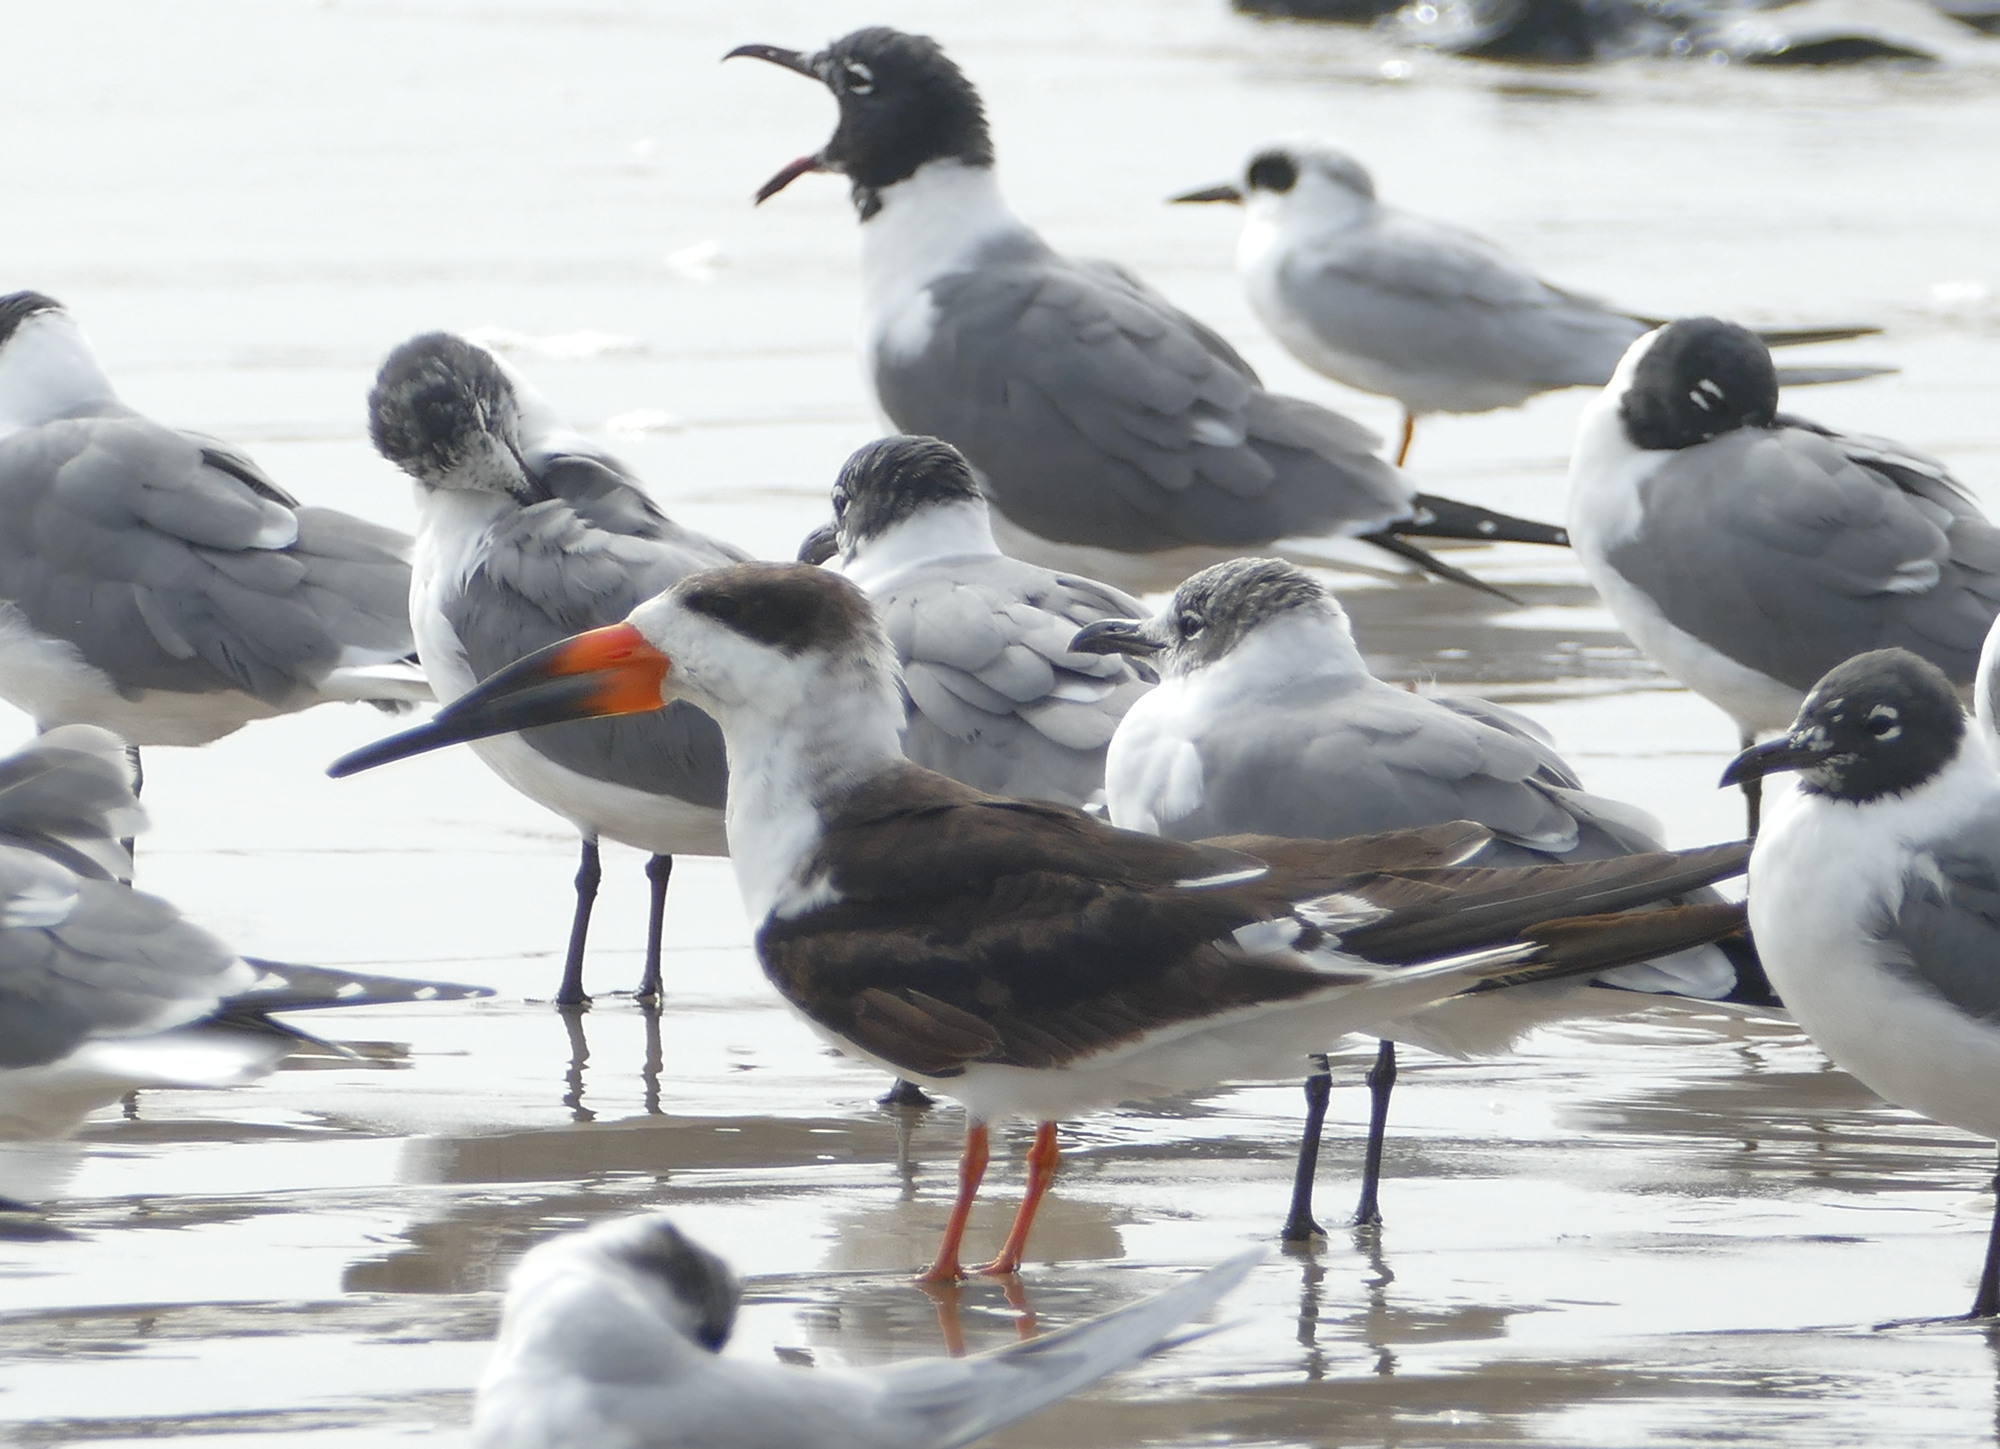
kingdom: Animalia
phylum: Chordata
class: Aves
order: Charadriiformes
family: Laridae
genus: Rynchops
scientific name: Rynchops niger
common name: Black skimmer
